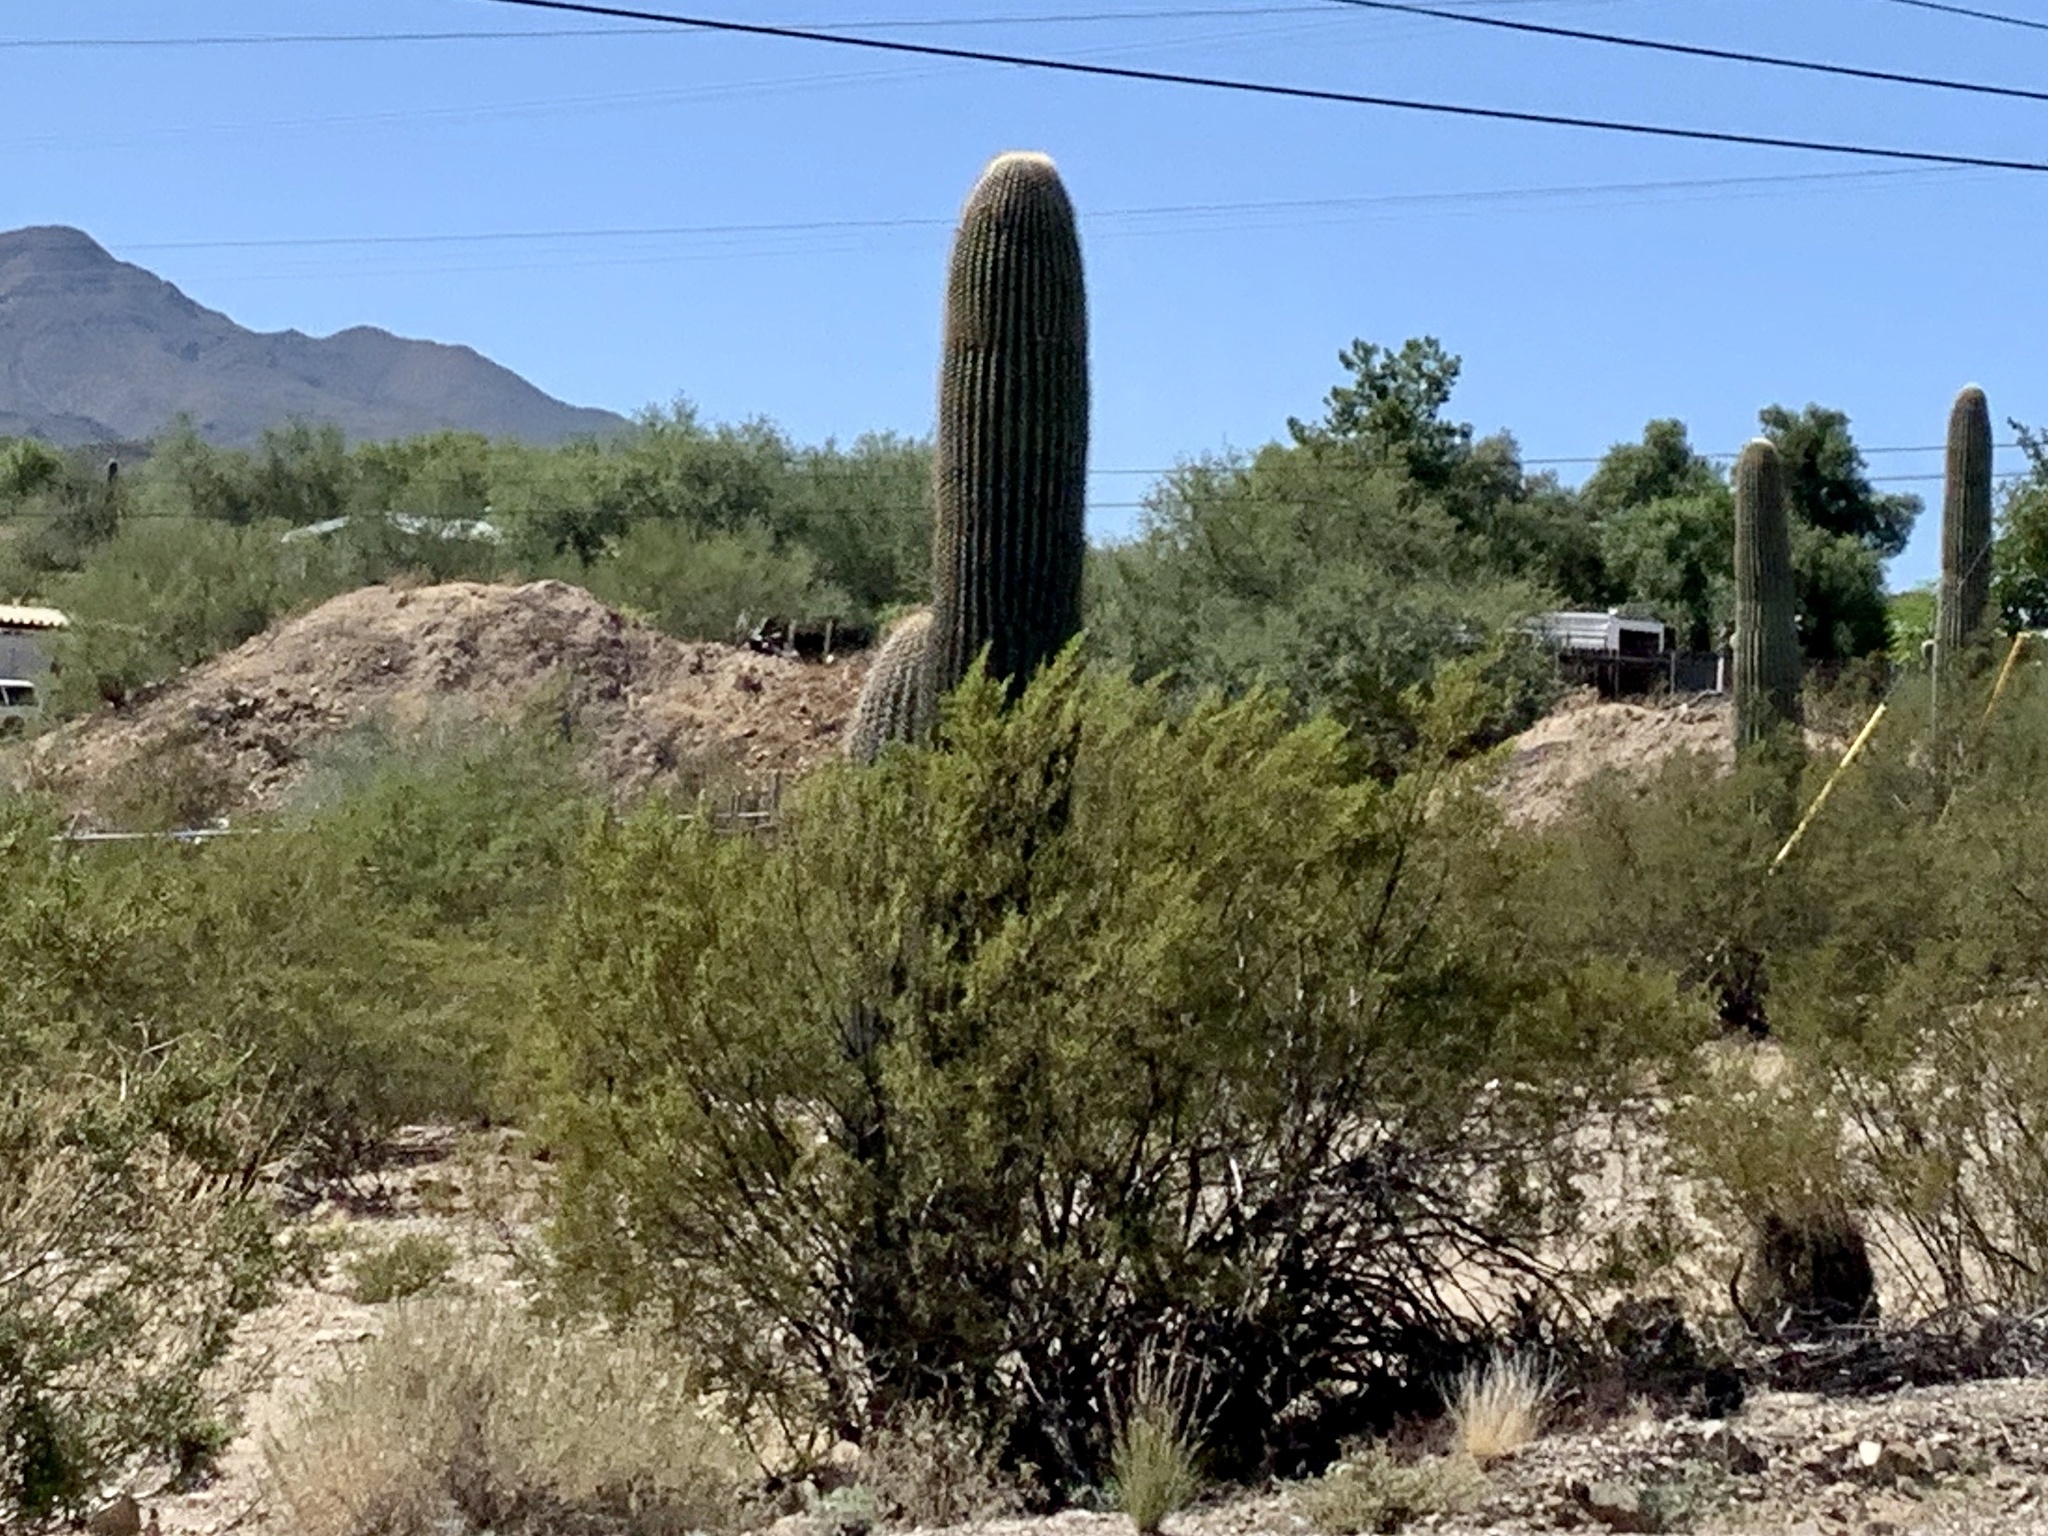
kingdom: Plantae
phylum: Tracheophyta
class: Magnoliopsida
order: Caryophyllales
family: Cactaceae
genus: Carnegiea
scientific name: Carnegiea gigantea
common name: Saguaro
